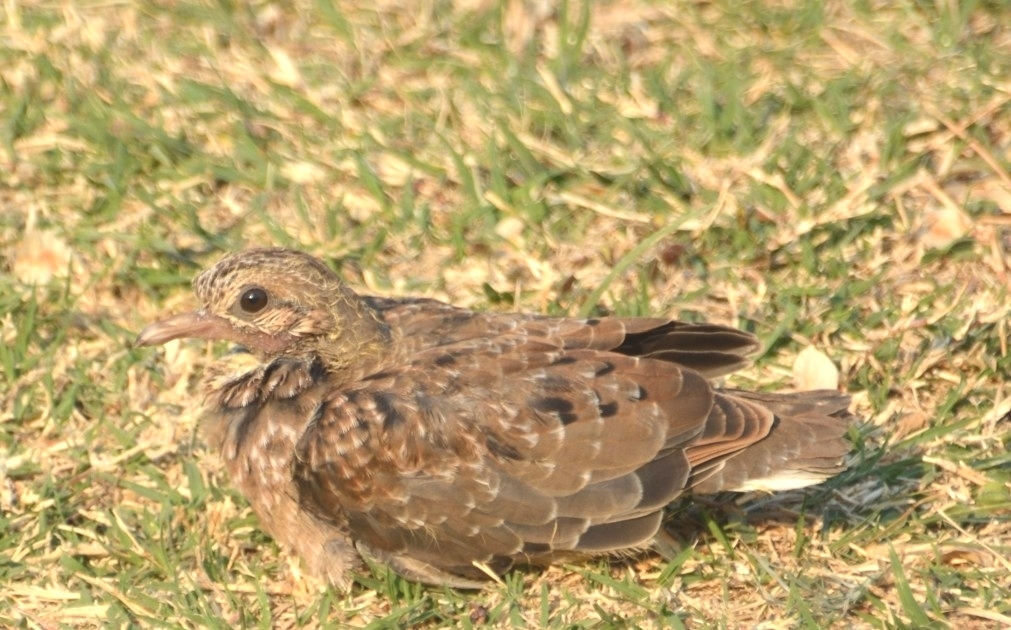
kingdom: Animalia
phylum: Chordata
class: Aves
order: Columbiformes
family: Columbidae
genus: Zenaida
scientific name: Zenaida auriculata
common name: Eared dove
